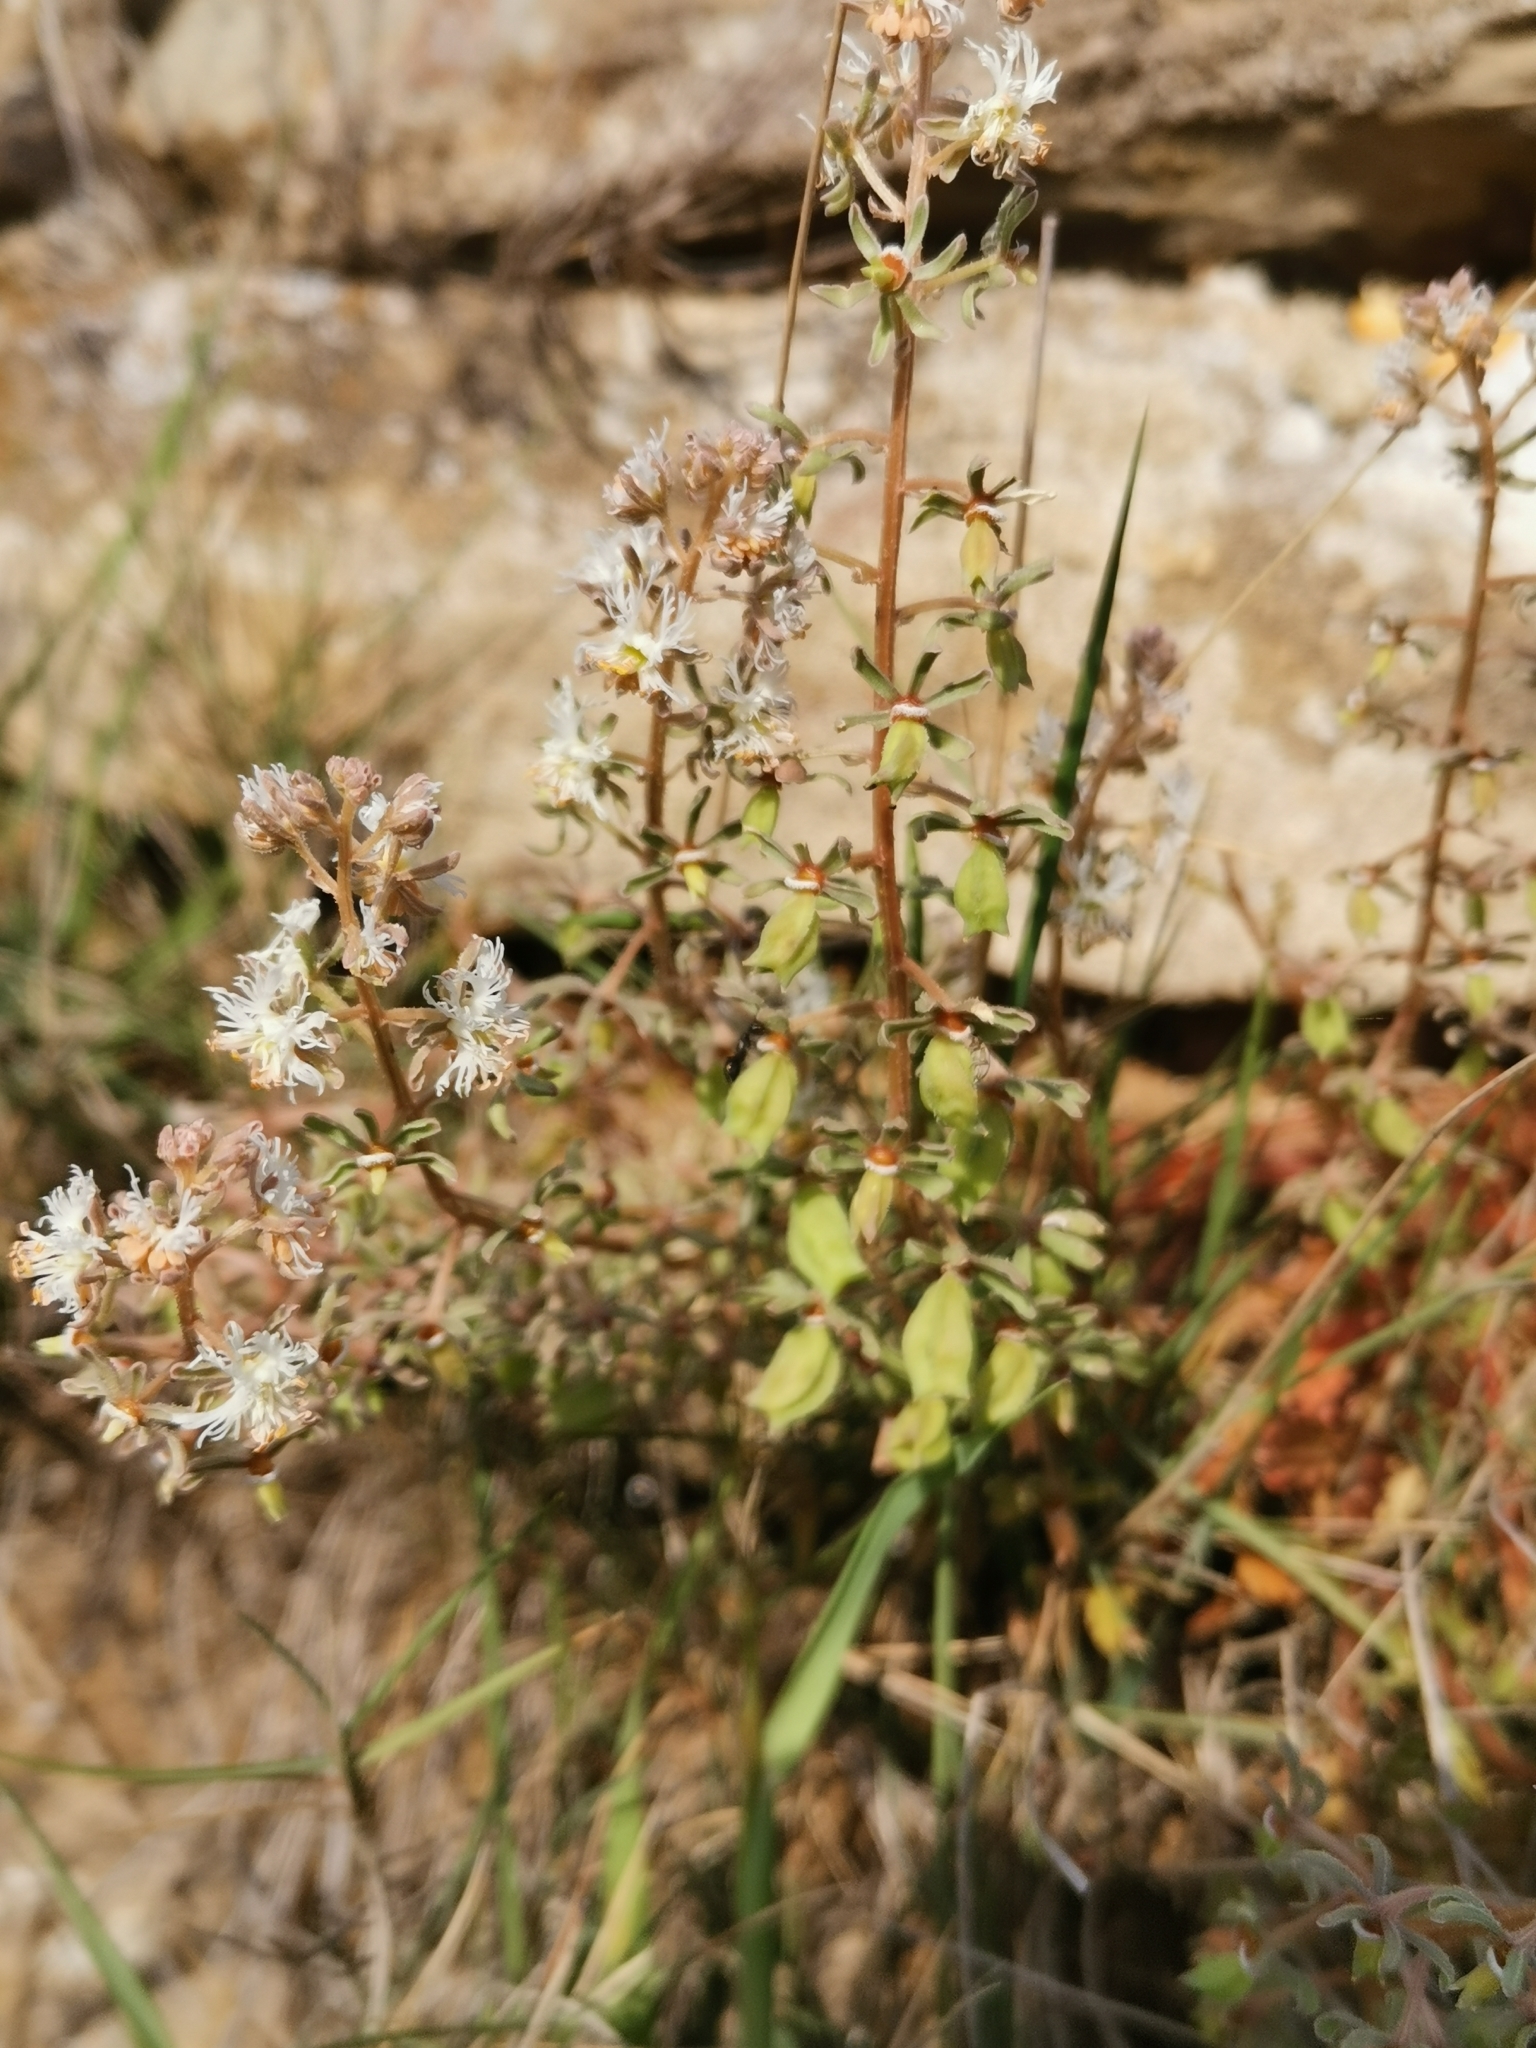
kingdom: Plantae
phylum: Tracheophyta
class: Magnoliopsida
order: Brassicales
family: Resedaceae
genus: Reseda
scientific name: Reseda phyteuma
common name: Corn mignonette
